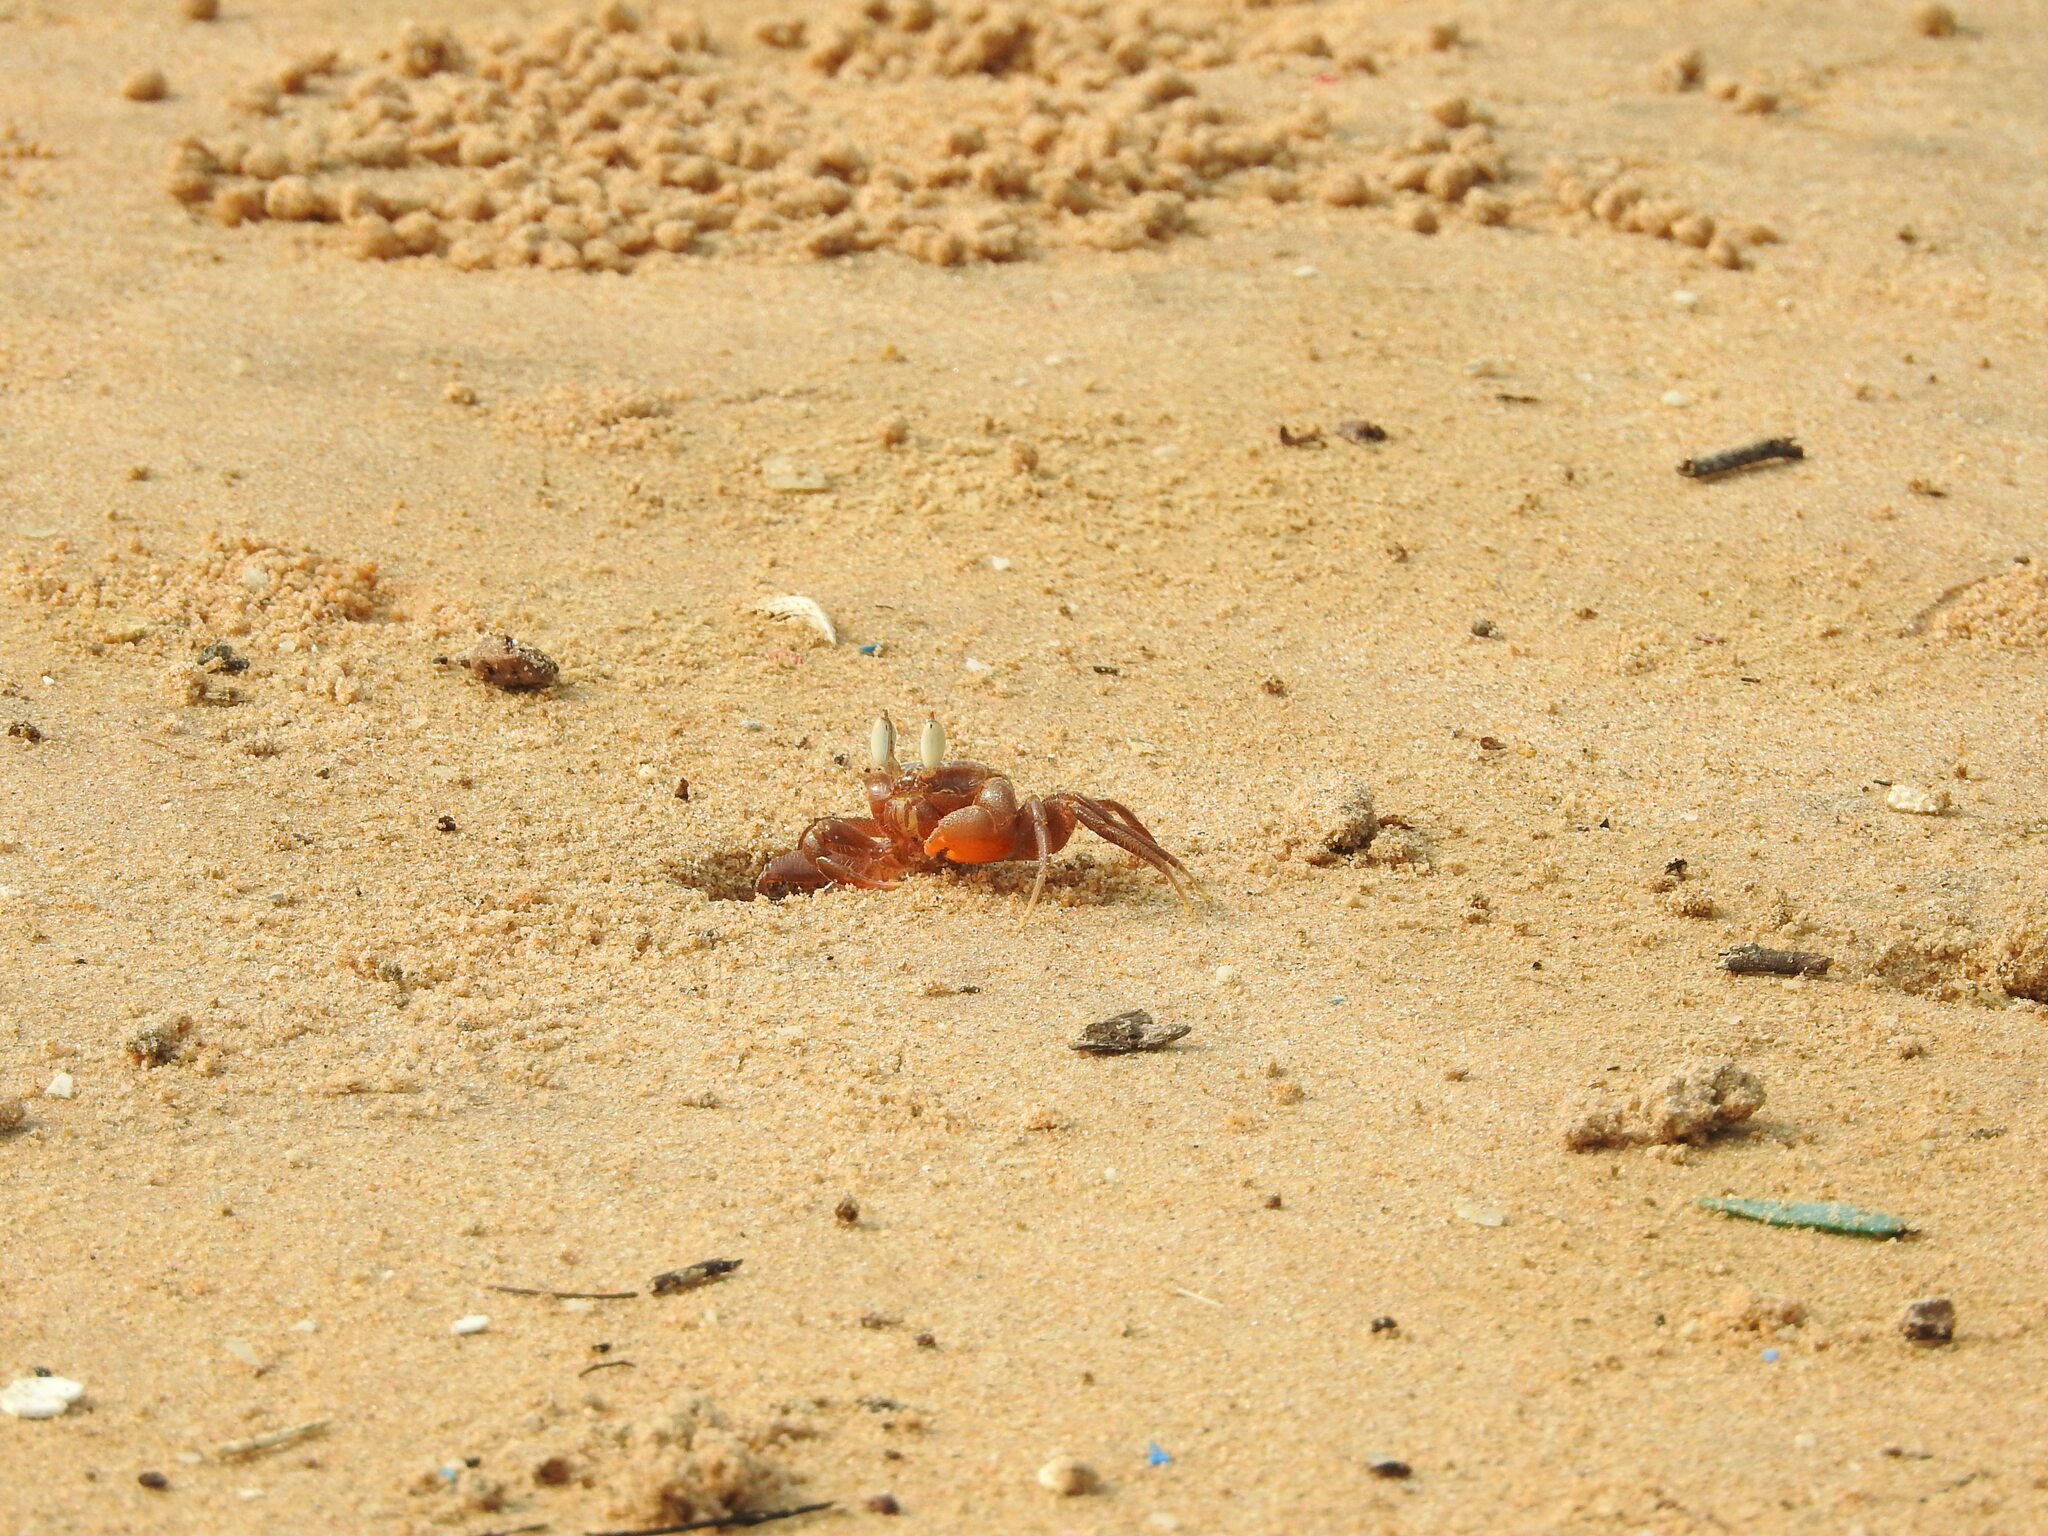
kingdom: Animalia
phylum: Arthropoda
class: Malacostraca
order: Decapoda
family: Ocypodidae
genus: Ocypode
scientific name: Ocypode macrocera
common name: Red ghost crab
